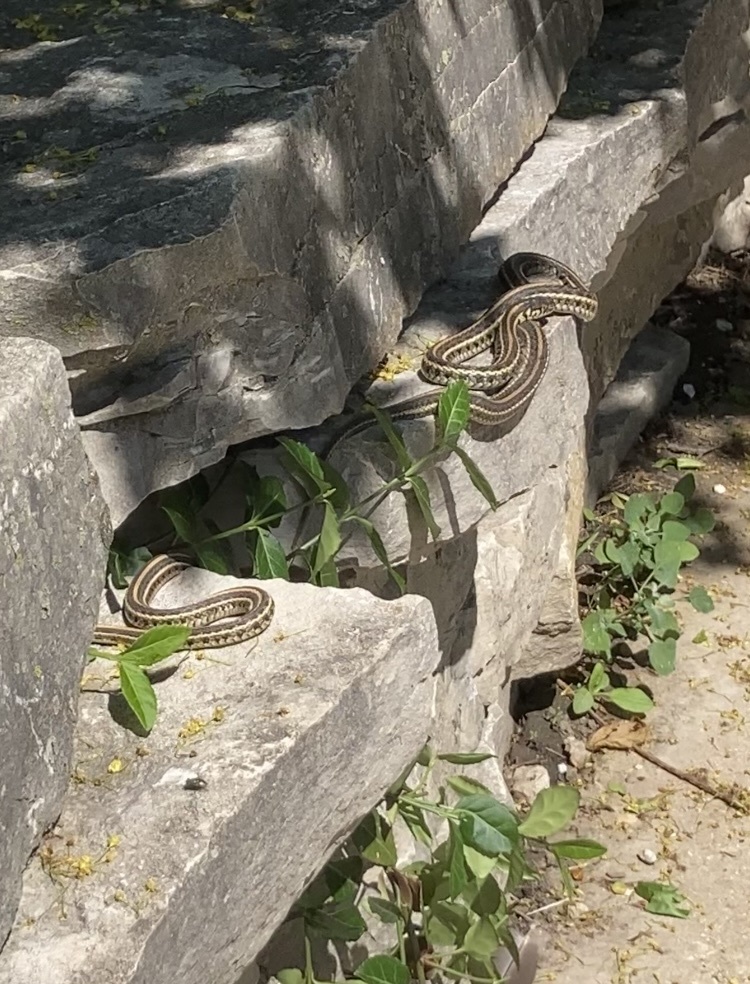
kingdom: Animalia
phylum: Chordata
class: Squamata
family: Colubridae
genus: Thamnophis
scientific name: Thamnophis radix
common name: Plains garter snake
